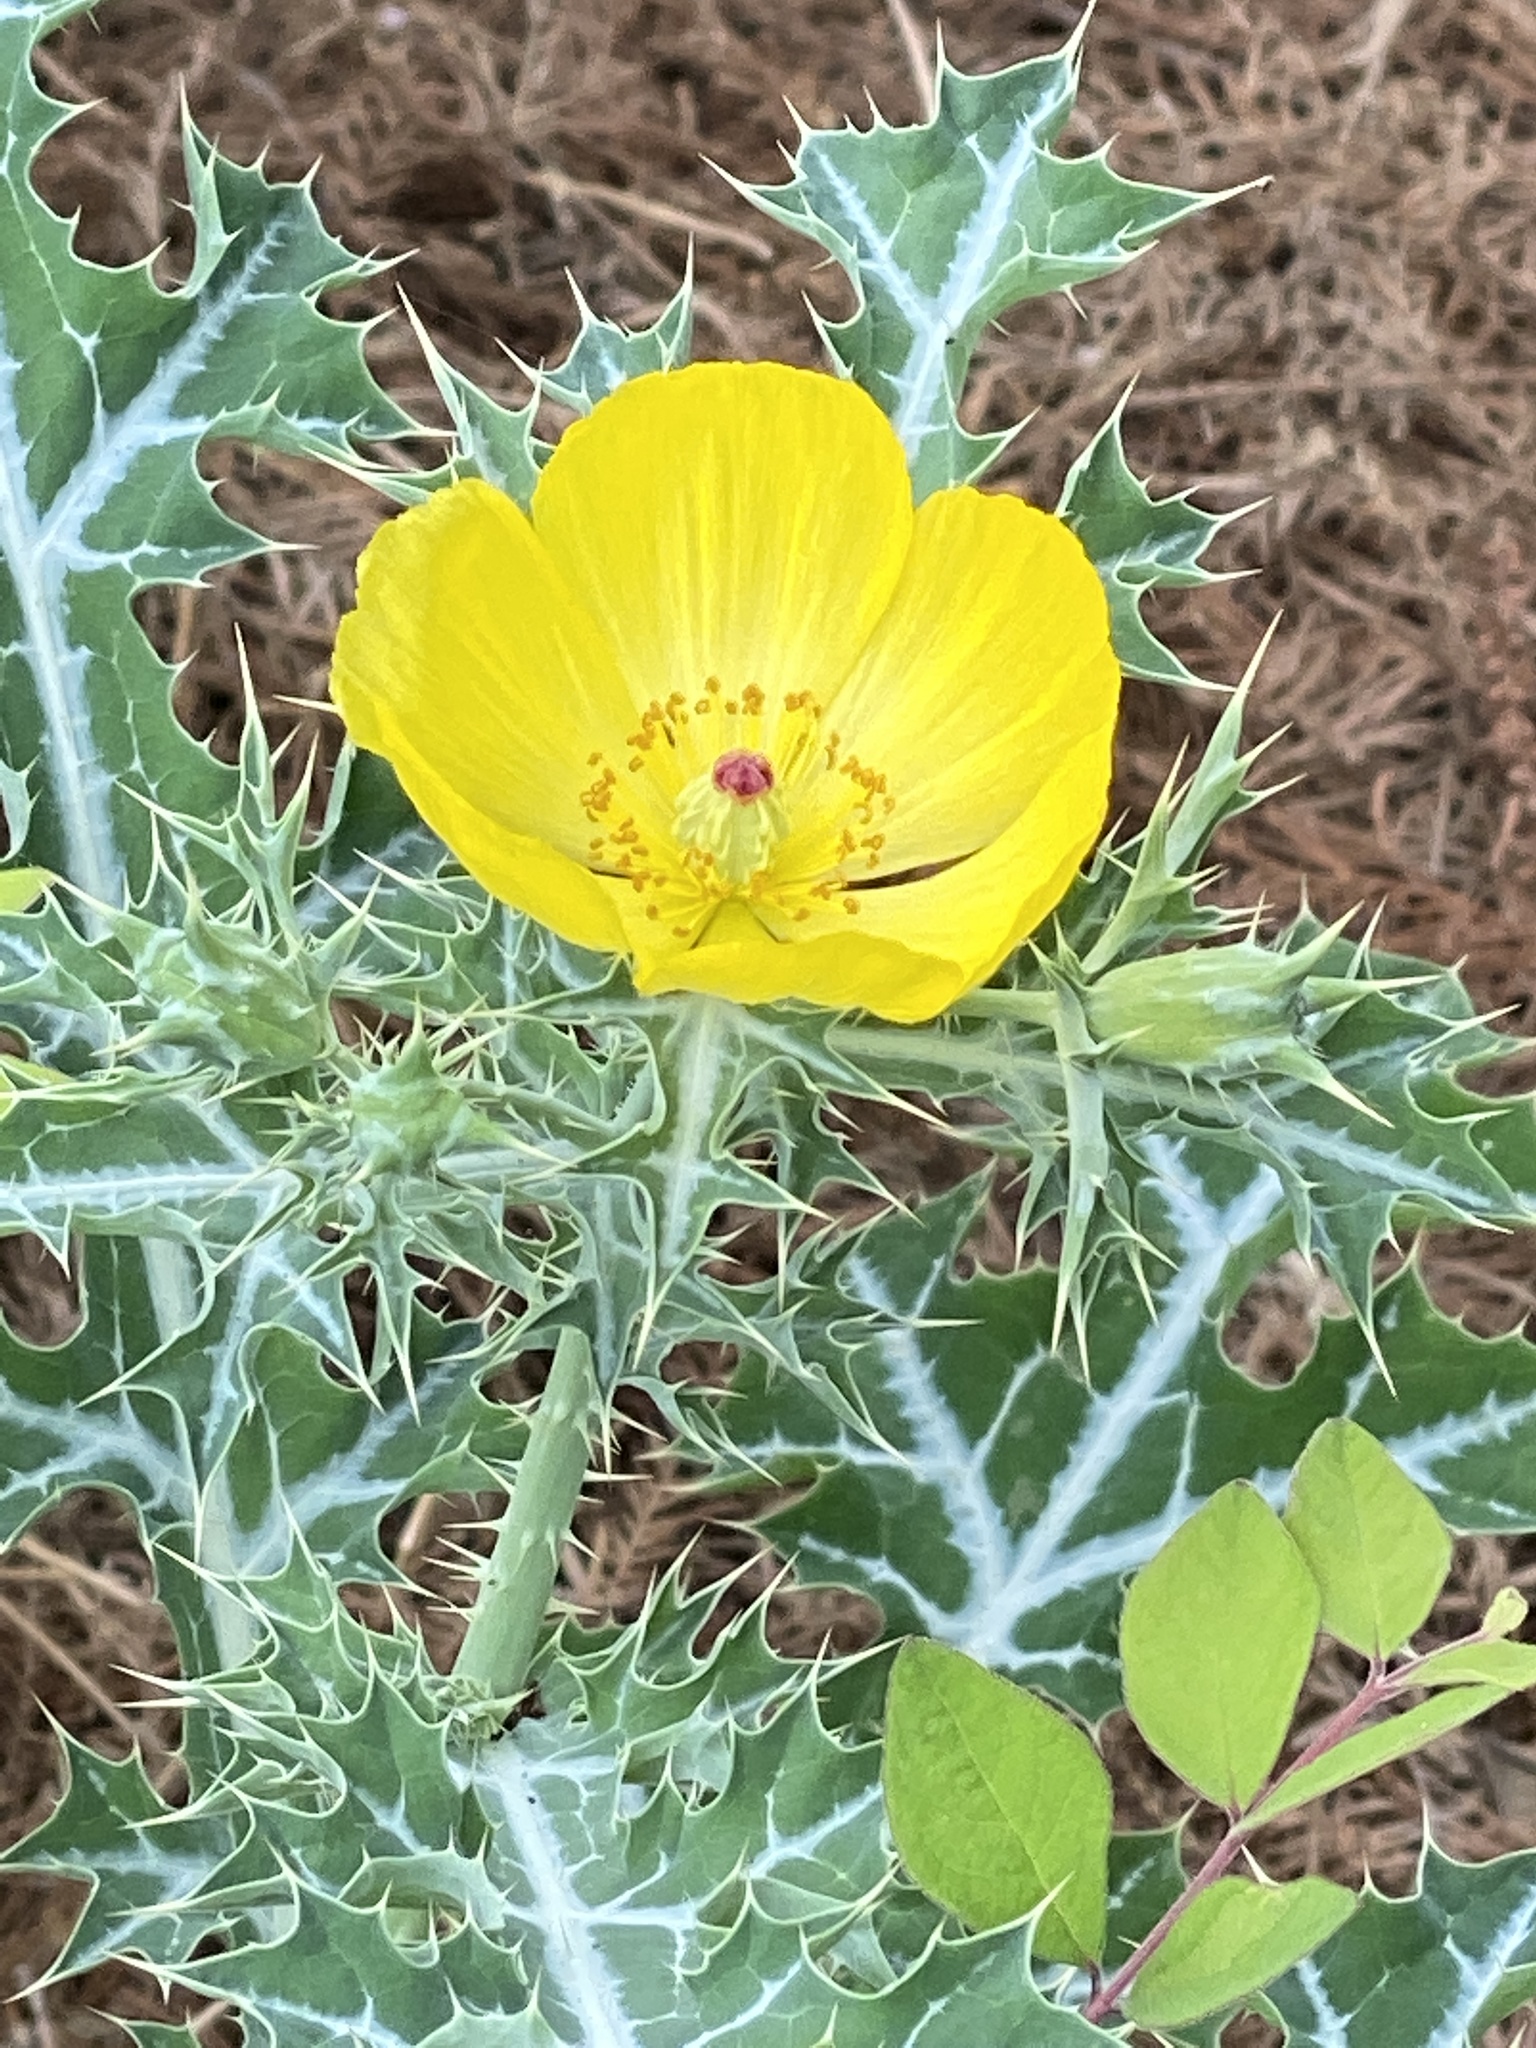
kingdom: Plantae
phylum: Tracheophyta
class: Magnoliopsida
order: Ranunculales
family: Papaveraceae
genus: Argemone
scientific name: Argemone mexicana
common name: Mexican poppy
